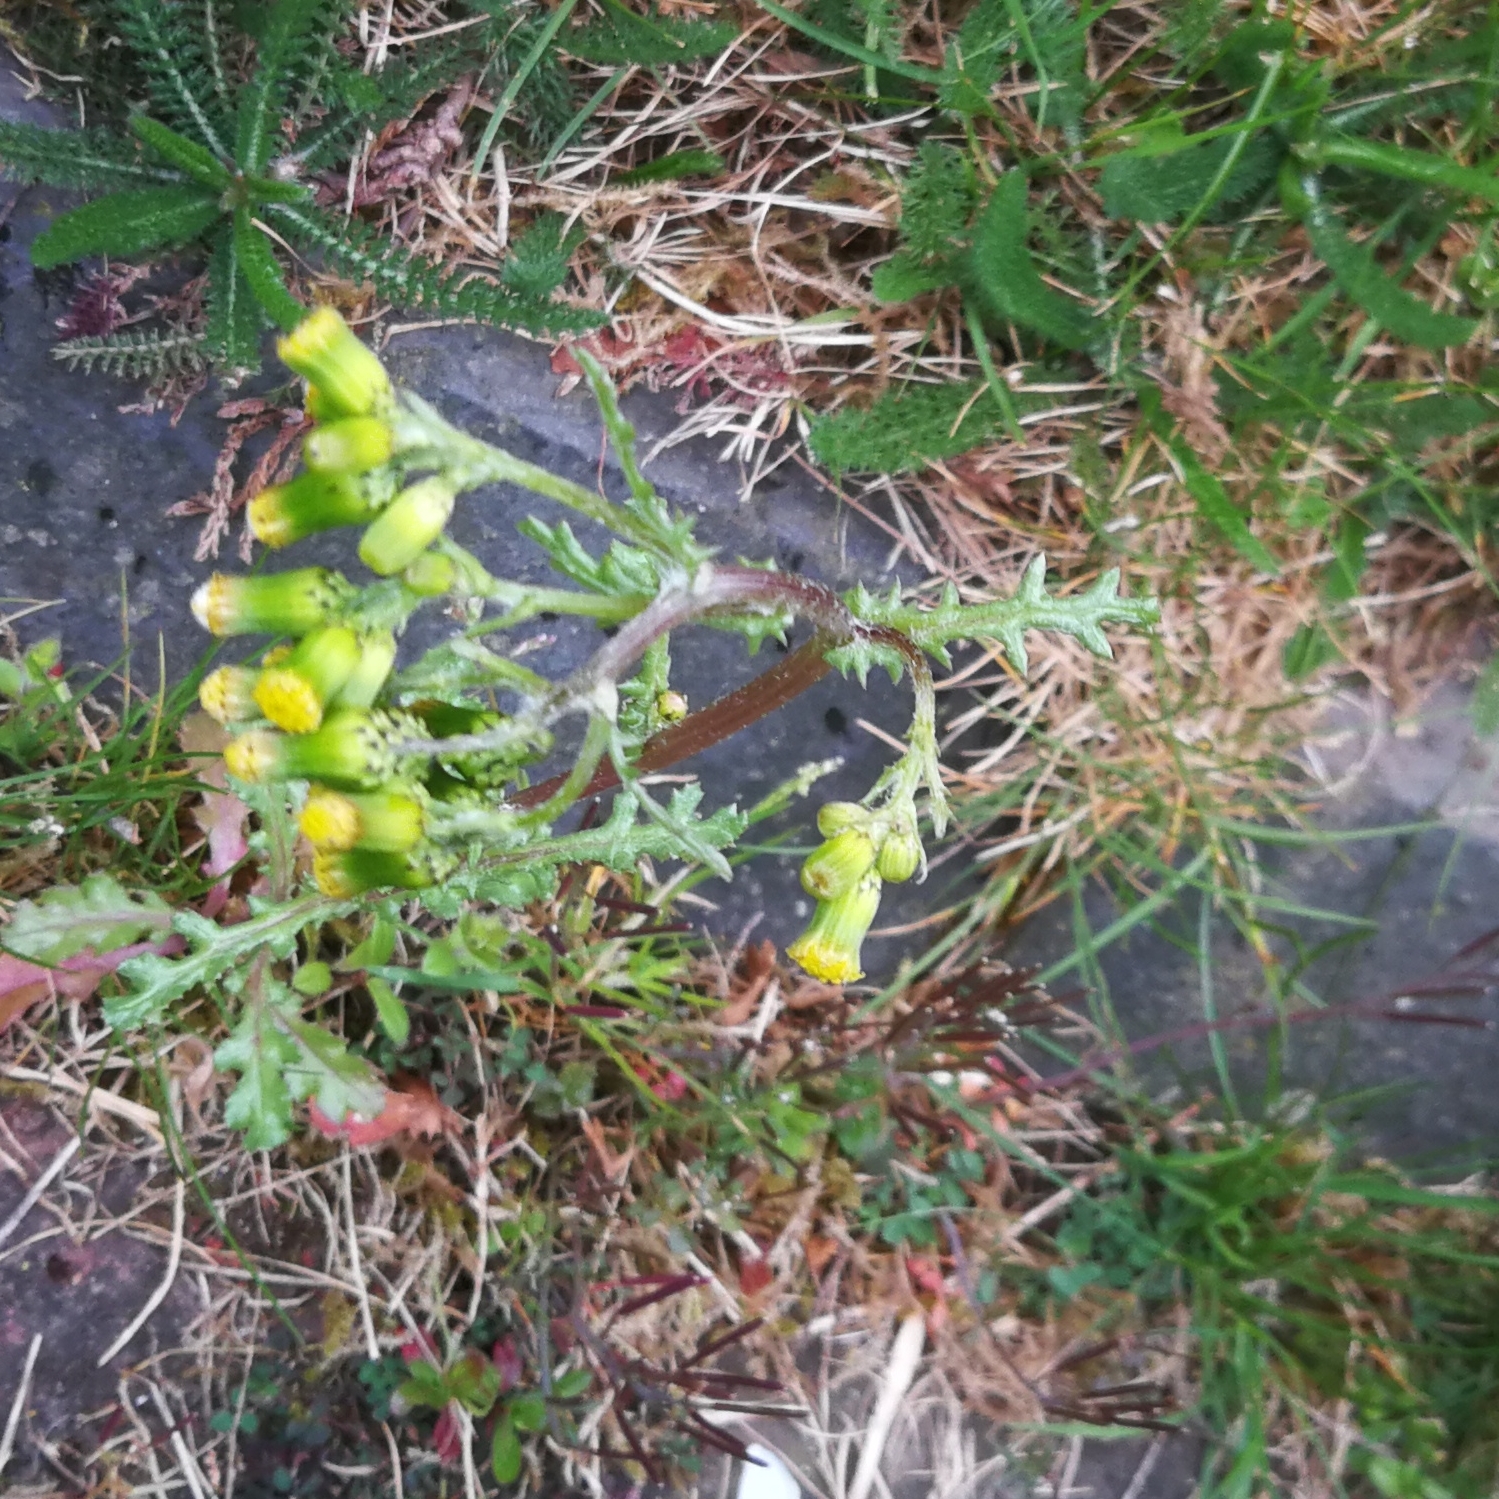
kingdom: Plantae
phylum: Tracheophyta
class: Magnoliopsida
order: Asterales
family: Asteraceae
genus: Senecio
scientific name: Senecio vulgaris
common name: Old-man-in-the-spring
